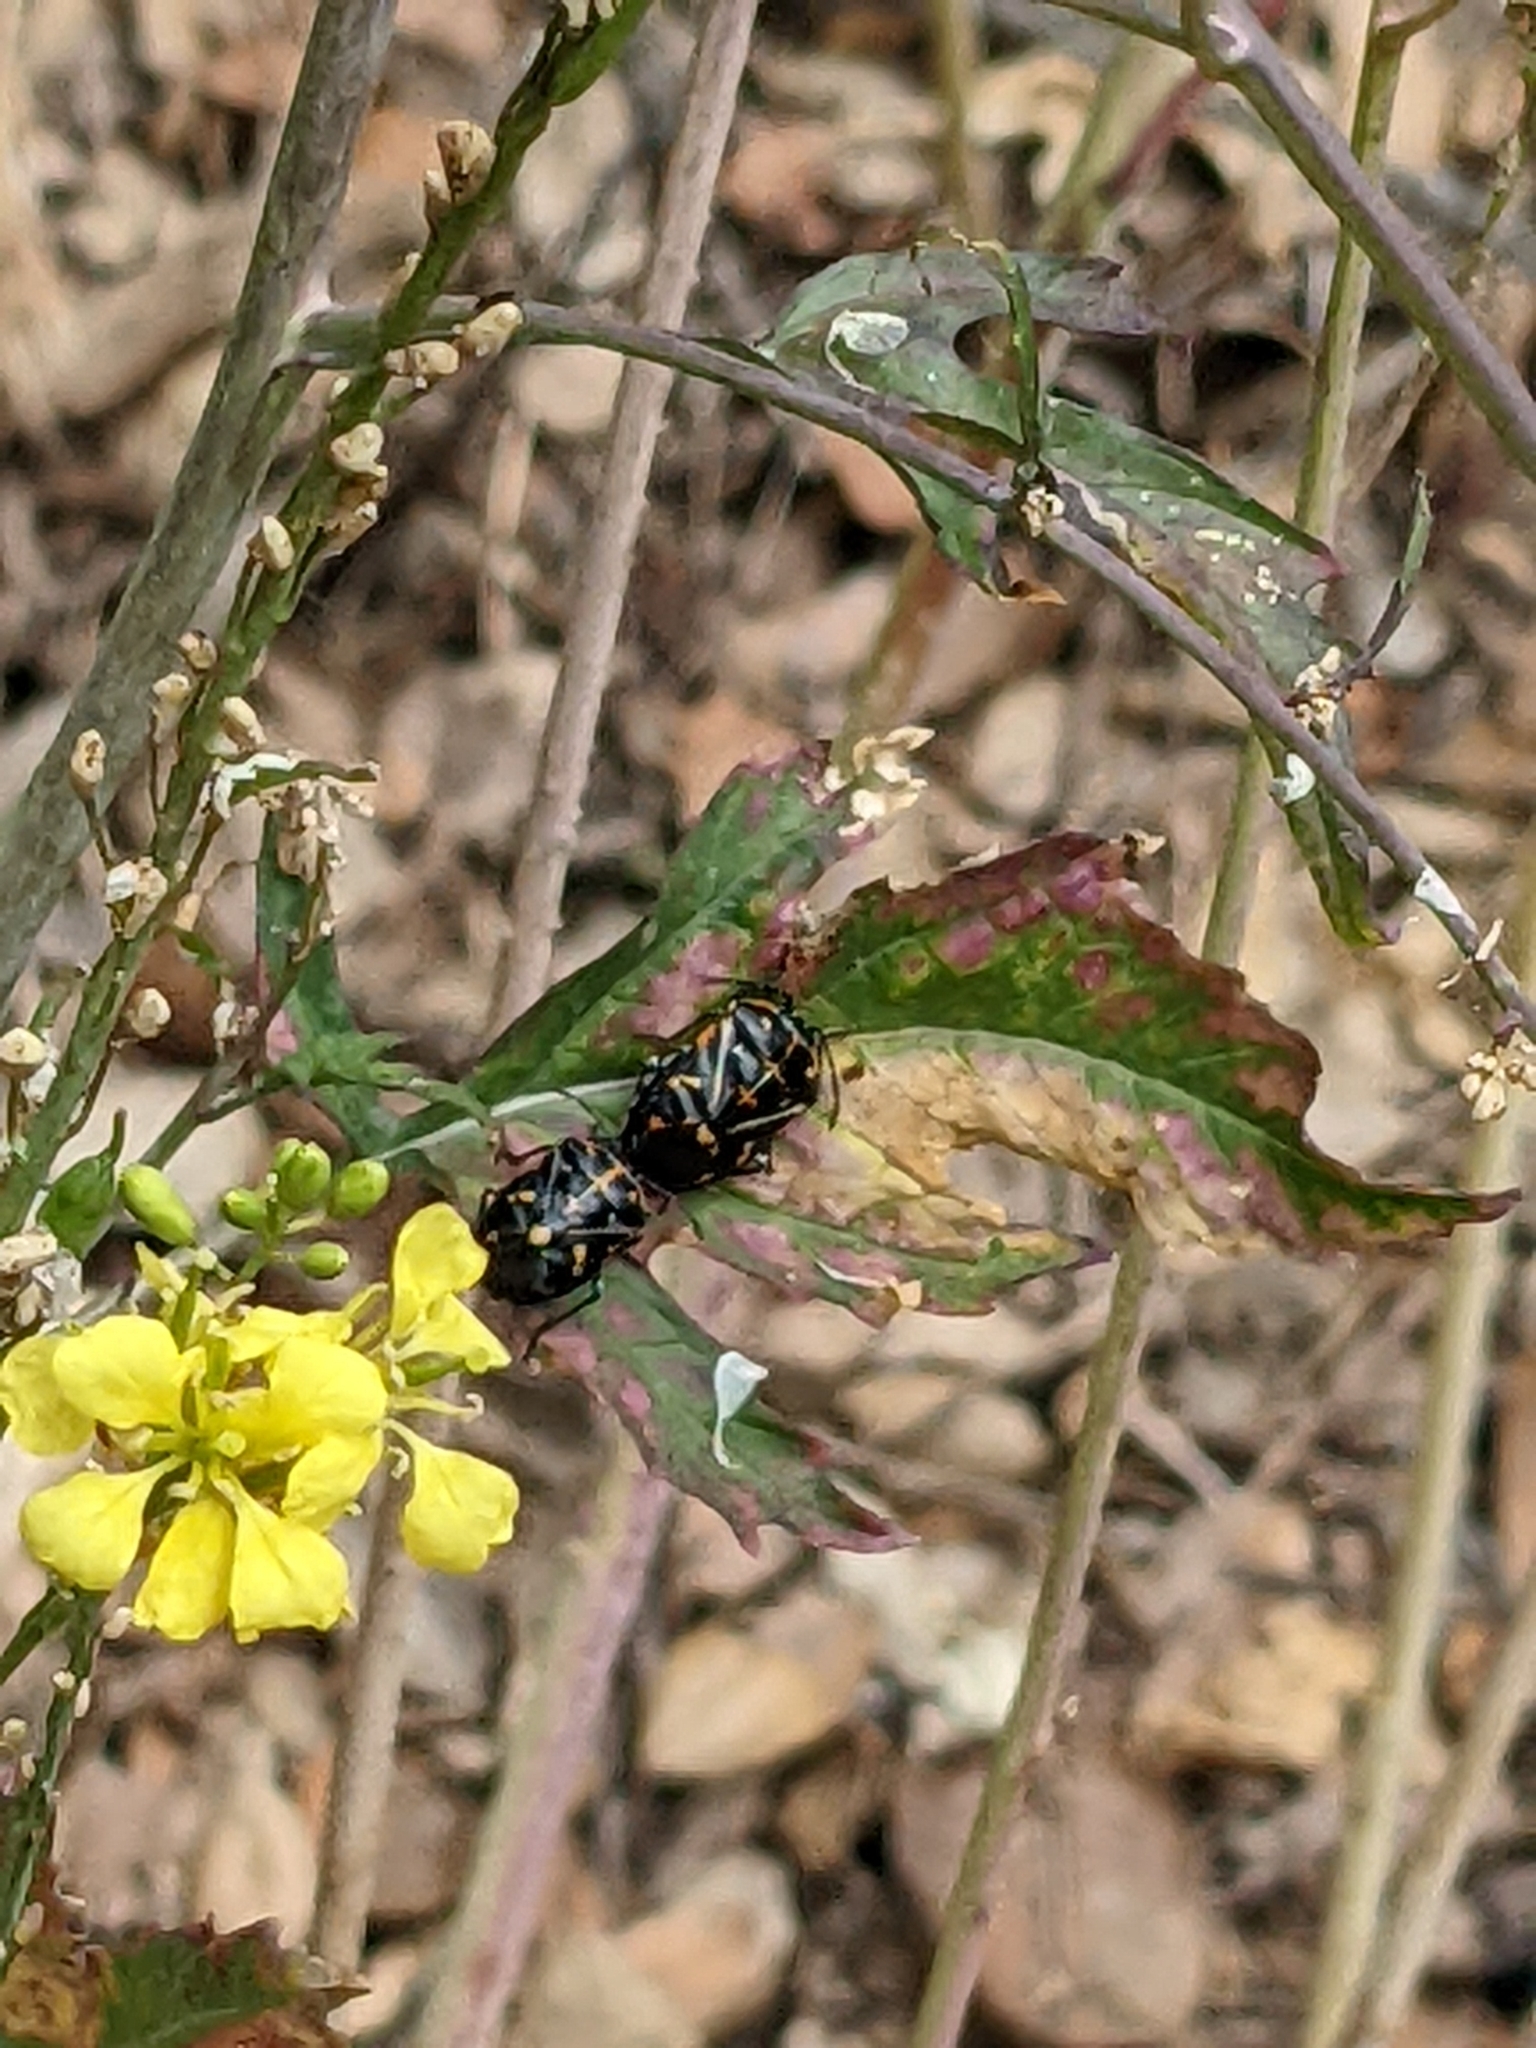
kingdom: Animalia
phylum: Arthropoda
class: Insecta
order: Hemiptera
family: Pentatomidae
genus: Murgantia
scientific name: Murgantia histrionica
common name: Harlequin bug
